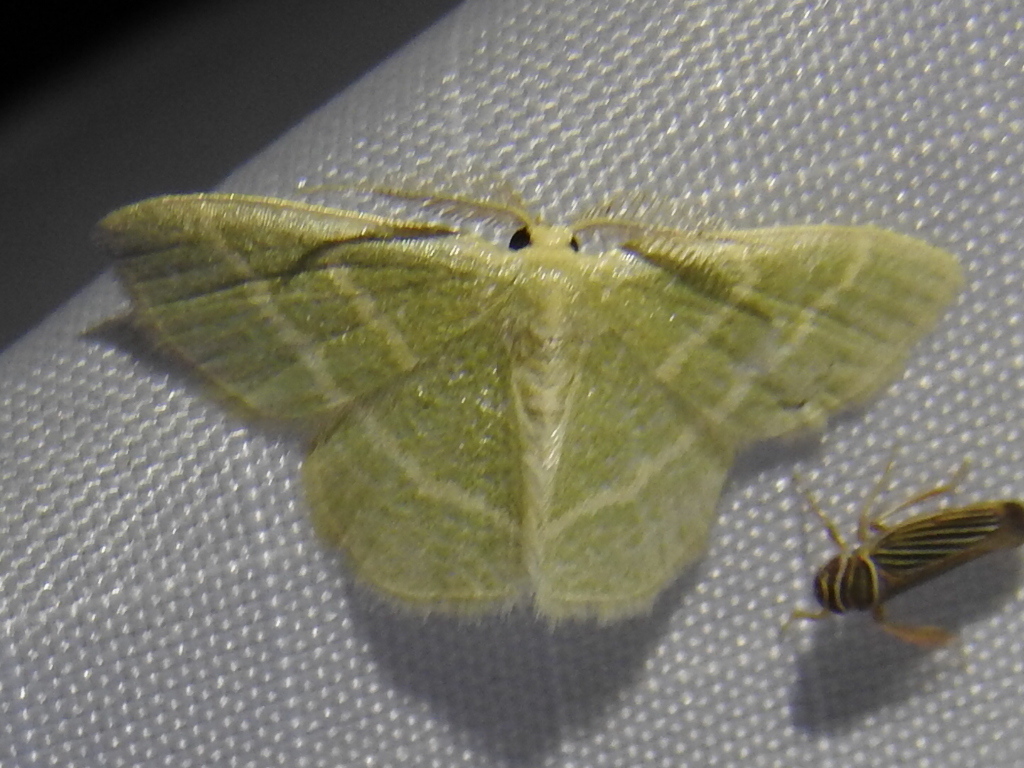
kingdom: Animalia
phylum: Arthropoda
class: Insecta
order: Lepidoptera
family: Geometridae
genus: Chlorochlamys
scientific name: Chlorochlamys chloroleucaria
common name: Blackberry looper
